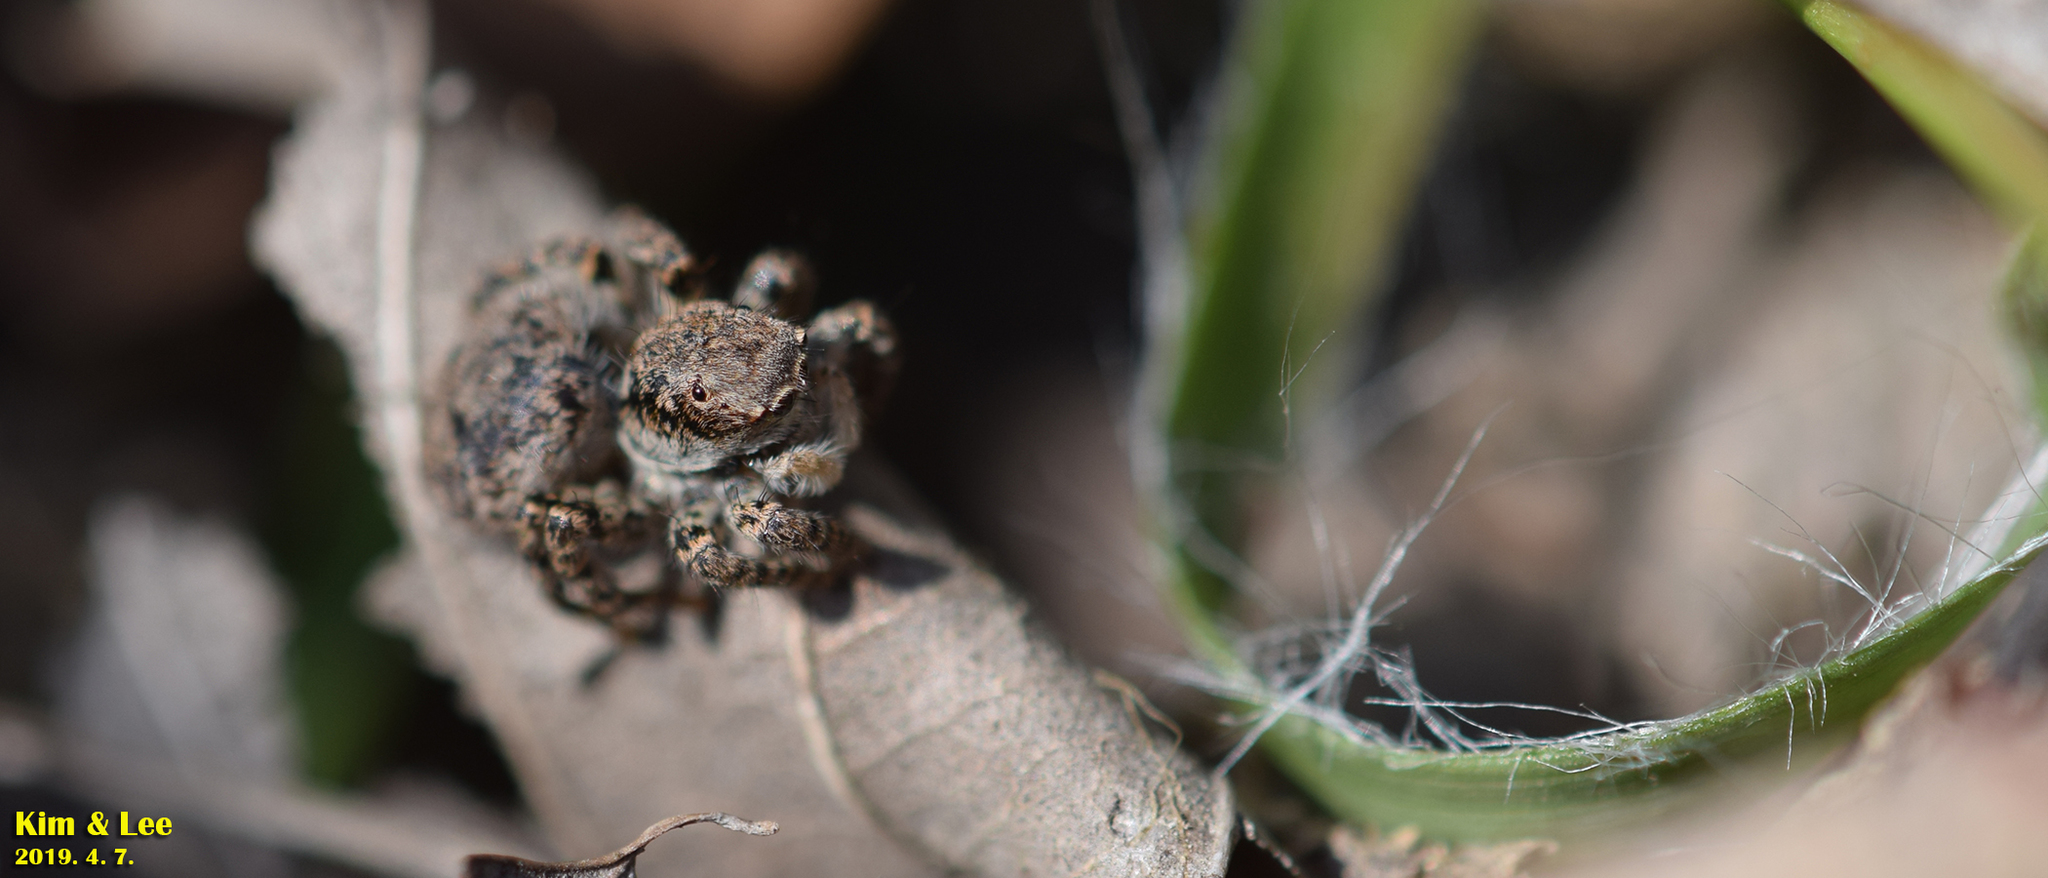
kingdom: Animalia
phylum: Arthropoda
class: Arachnida
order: Araneae
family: Salticidae
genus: Asianellus
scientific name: Asianellus festivus
